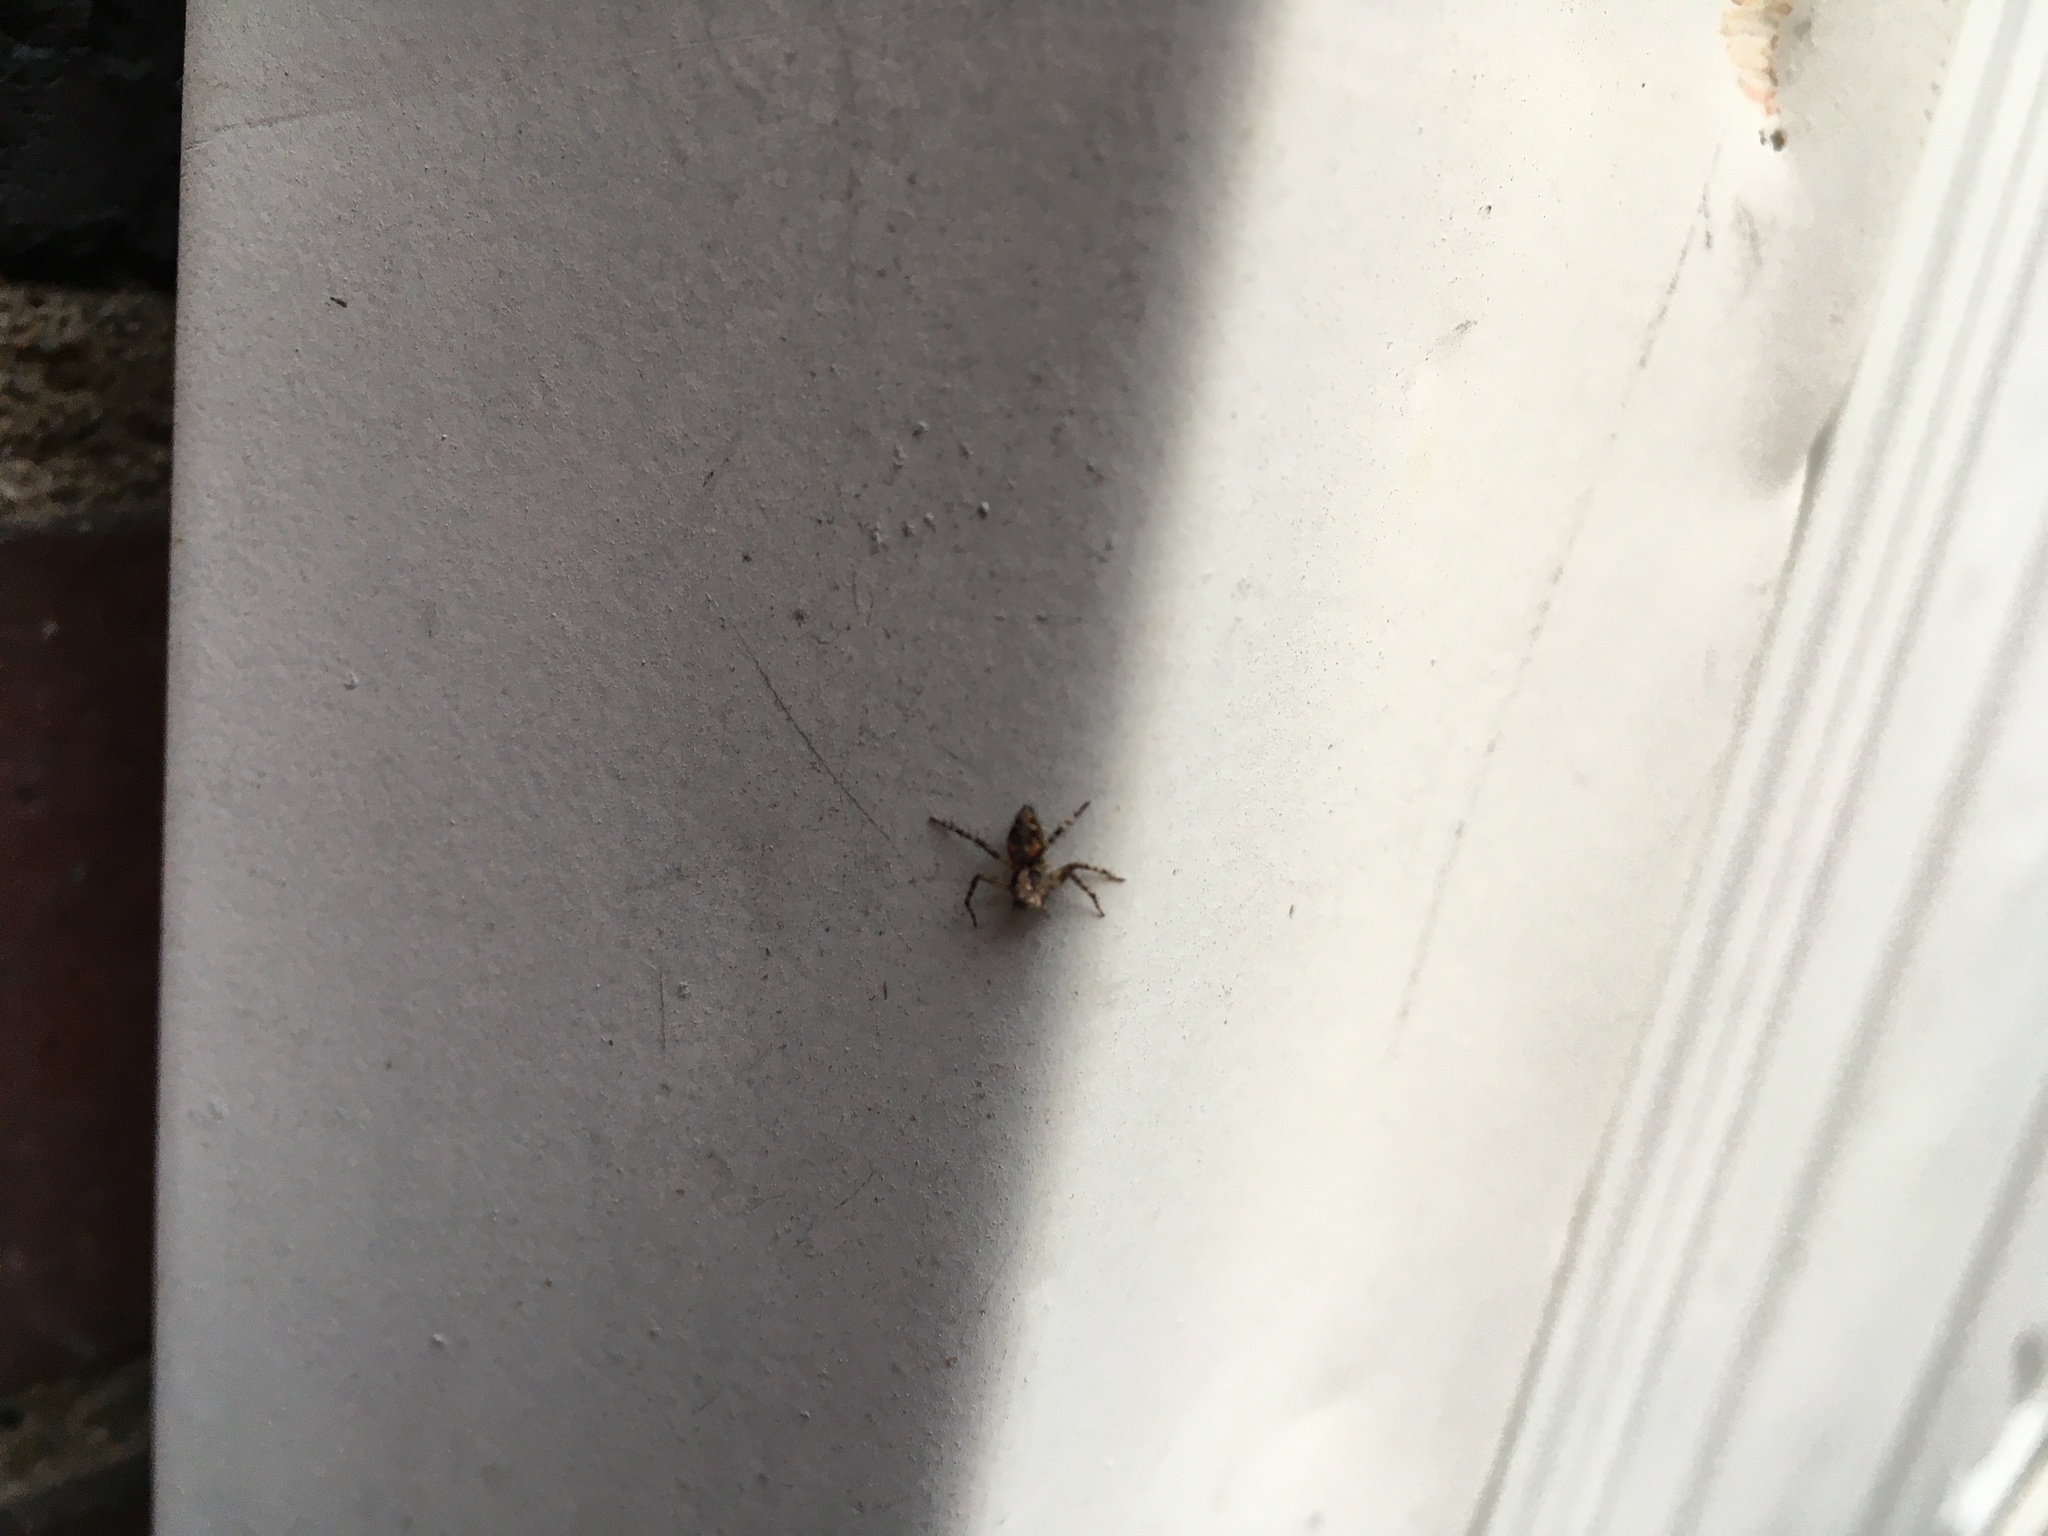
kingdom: Animalia
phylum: Arthropoda
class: Arachnida
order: Araneae
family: Oxyopidae
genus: Oxyopes
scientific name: Oxyopes scalaris
